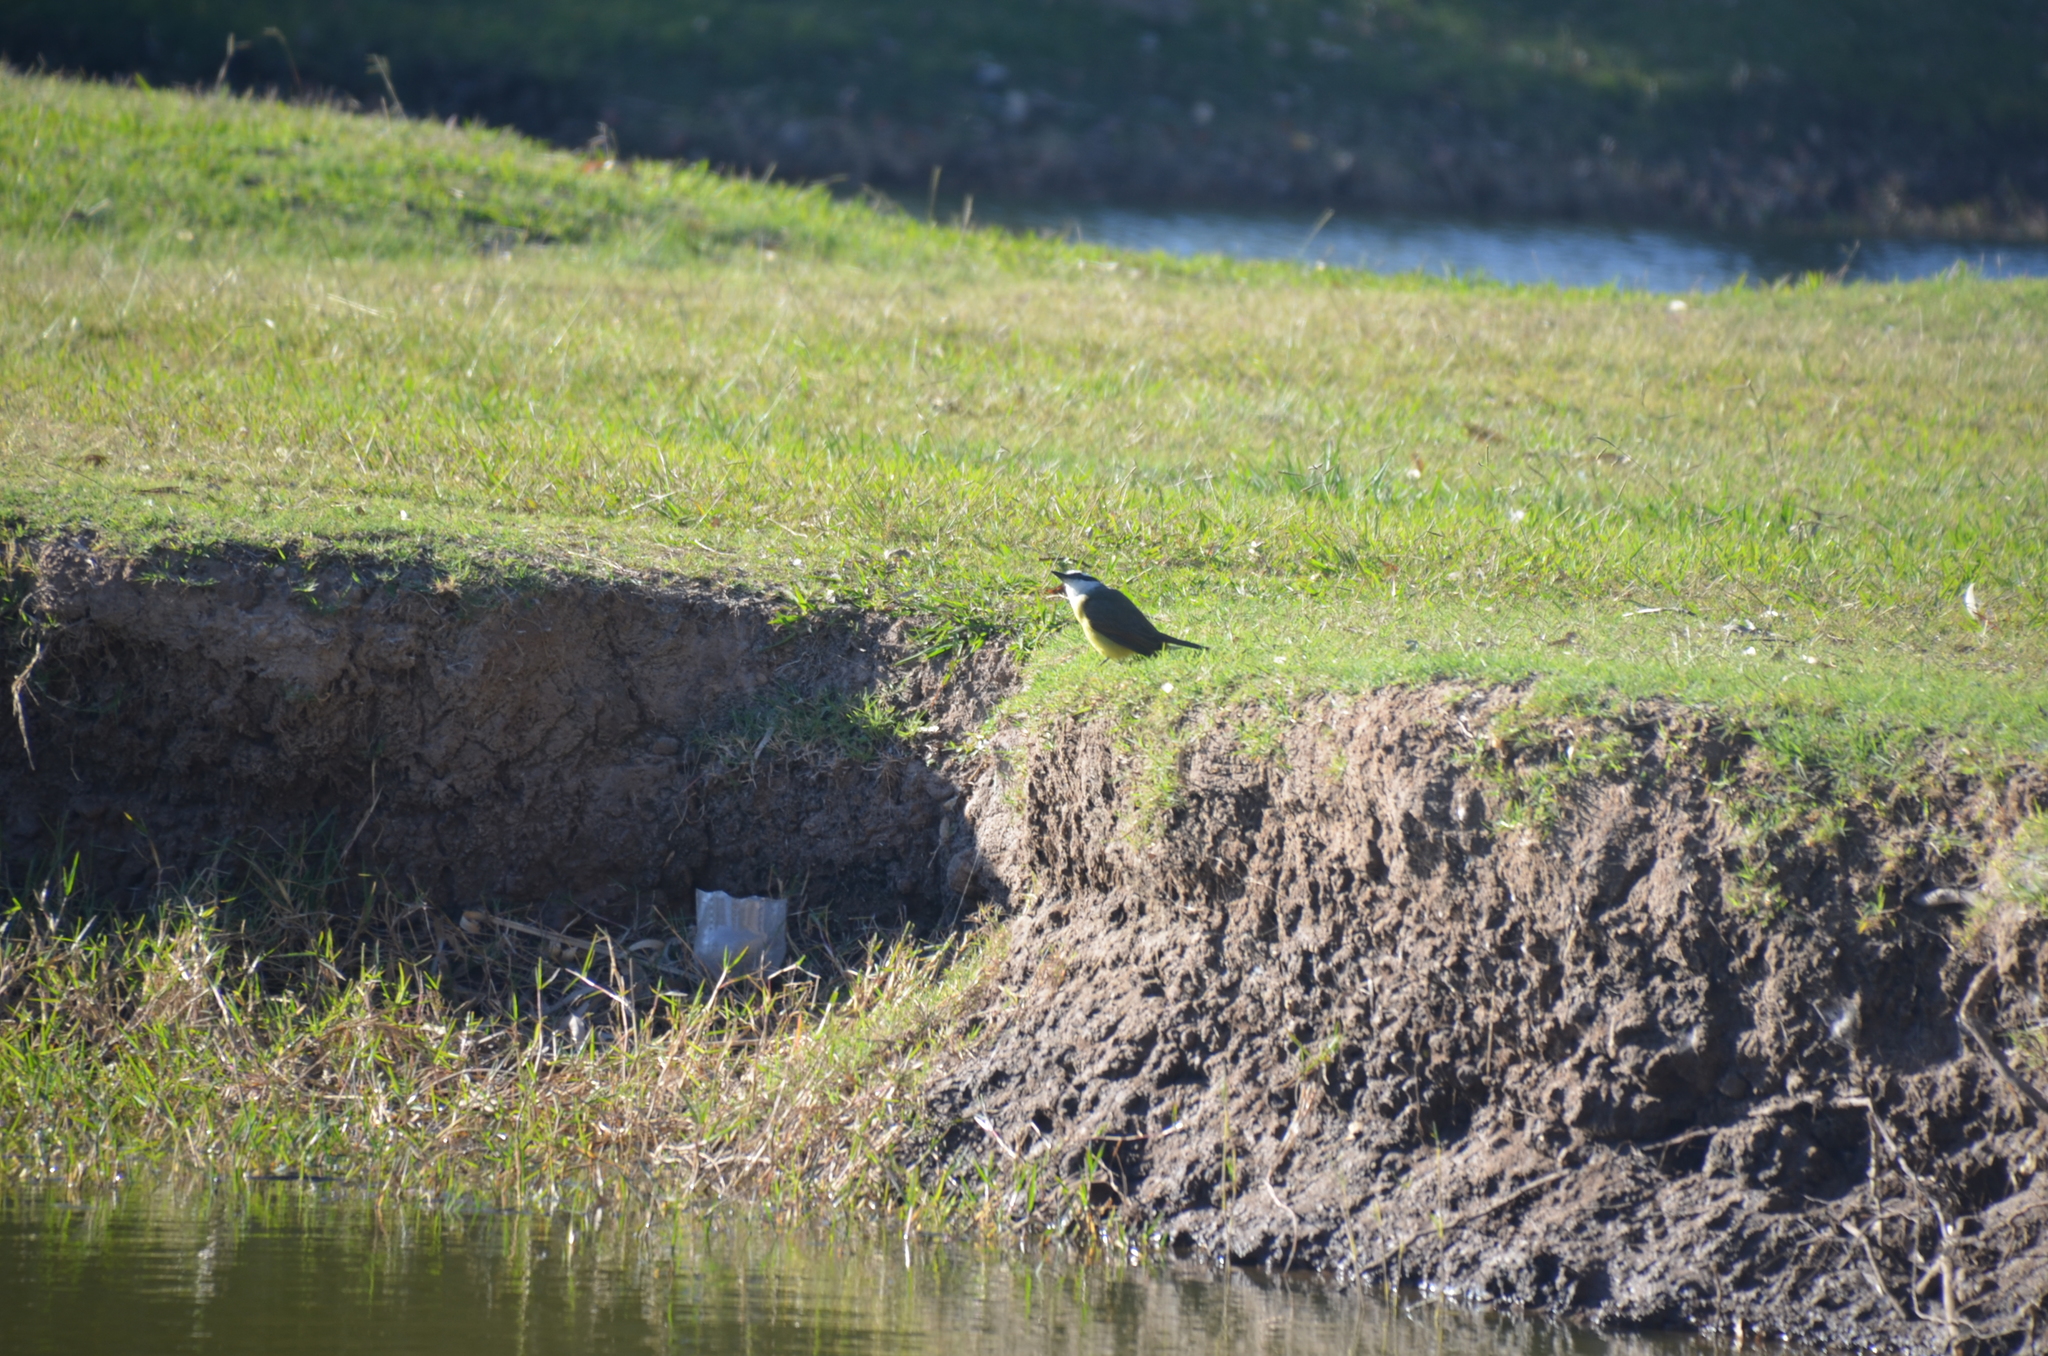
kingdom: Animalia
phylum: Chordata
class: Aves
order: Passeriformes
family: Tyrannidae
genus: Pitangus
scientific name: Pitangus sulphuratus
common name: Great kiskadee
